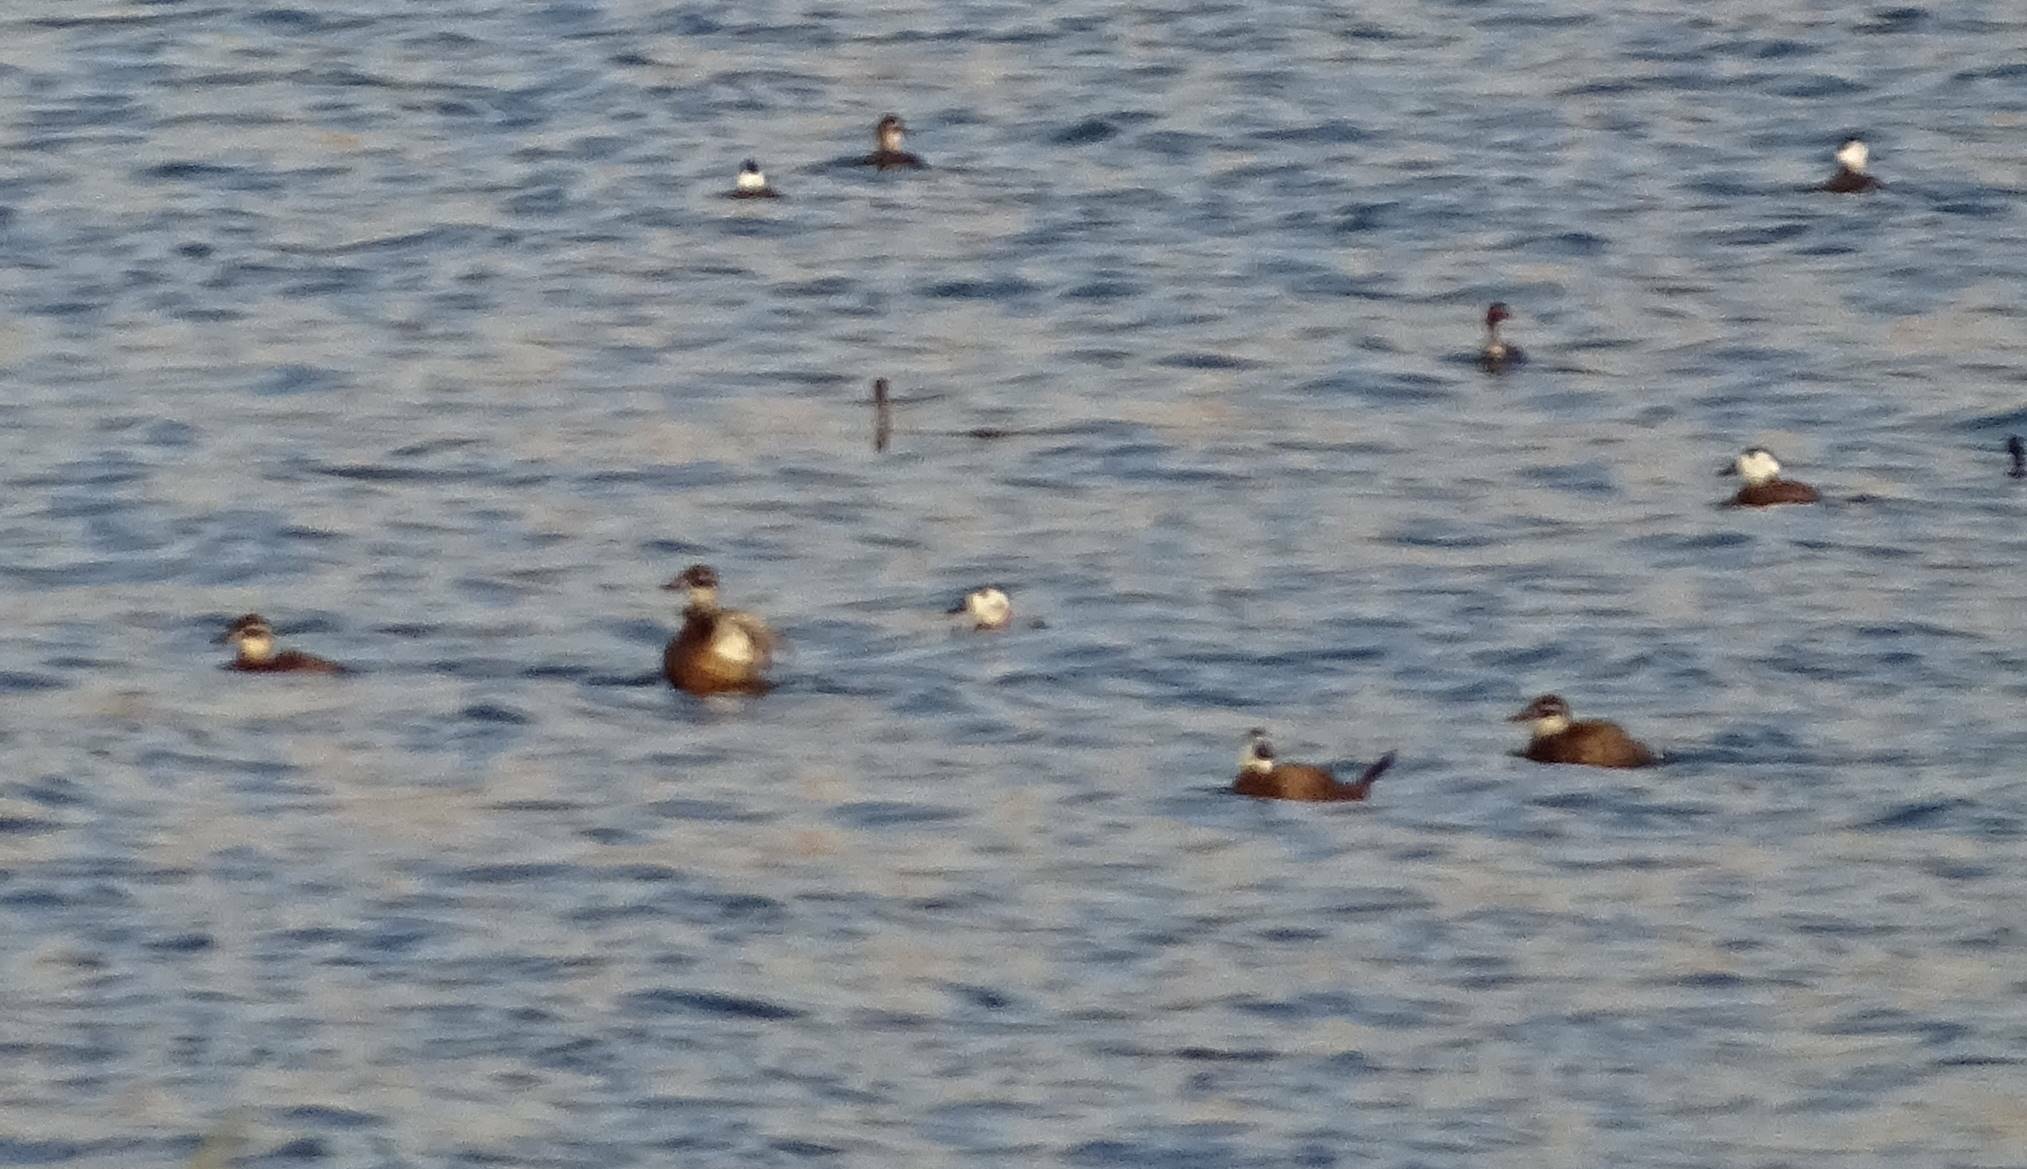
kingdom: Animalia
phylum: Chordata
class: Aves
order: Anseriformes
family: Anatidae
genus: Oxyura
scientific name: Oxyura leucocephala
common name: White-headed duck
